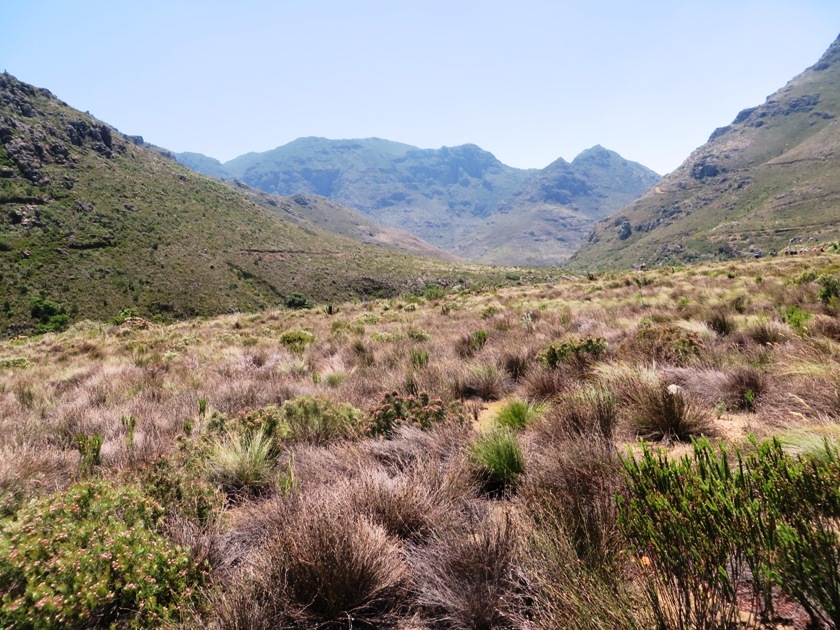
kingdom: Plantae
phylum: Tracheophyta
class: Magnoliopsida
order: Proteales
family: Proteaceae
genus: Serruria
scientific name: Serruria fasciflora
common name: Common pin spiderhead
